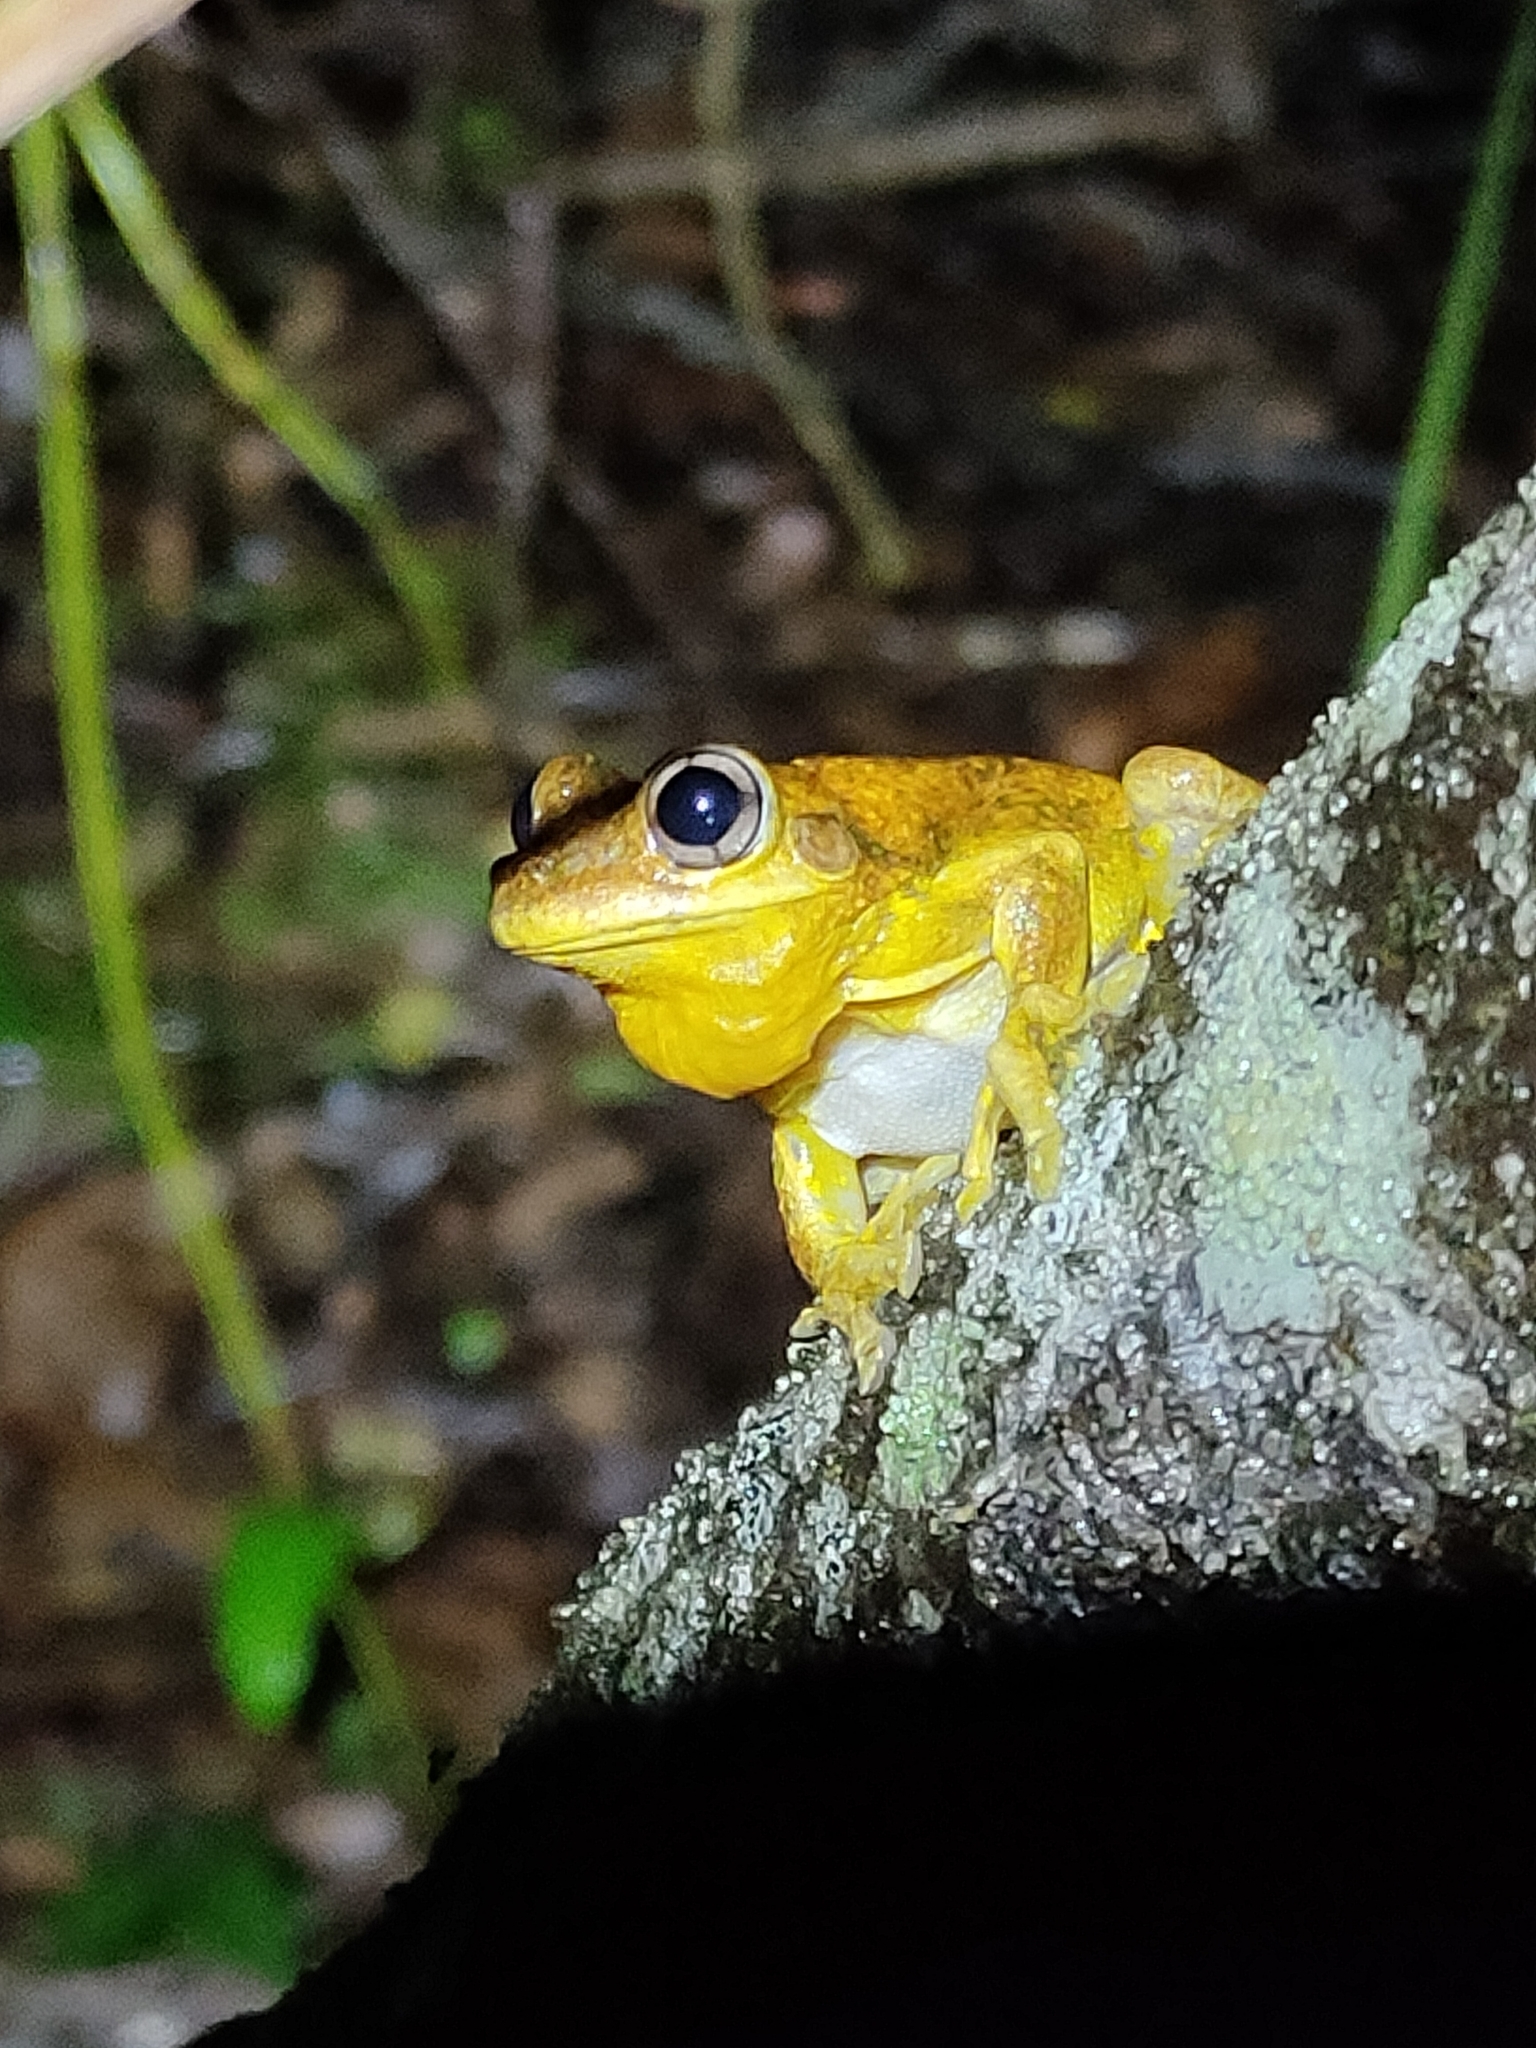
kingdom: Animalia
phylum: Chordata
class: Amphibia
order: Anura
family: Pelodryadidae
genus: Litoria
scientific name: Litoria tyleri
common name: Laughing tree frog
